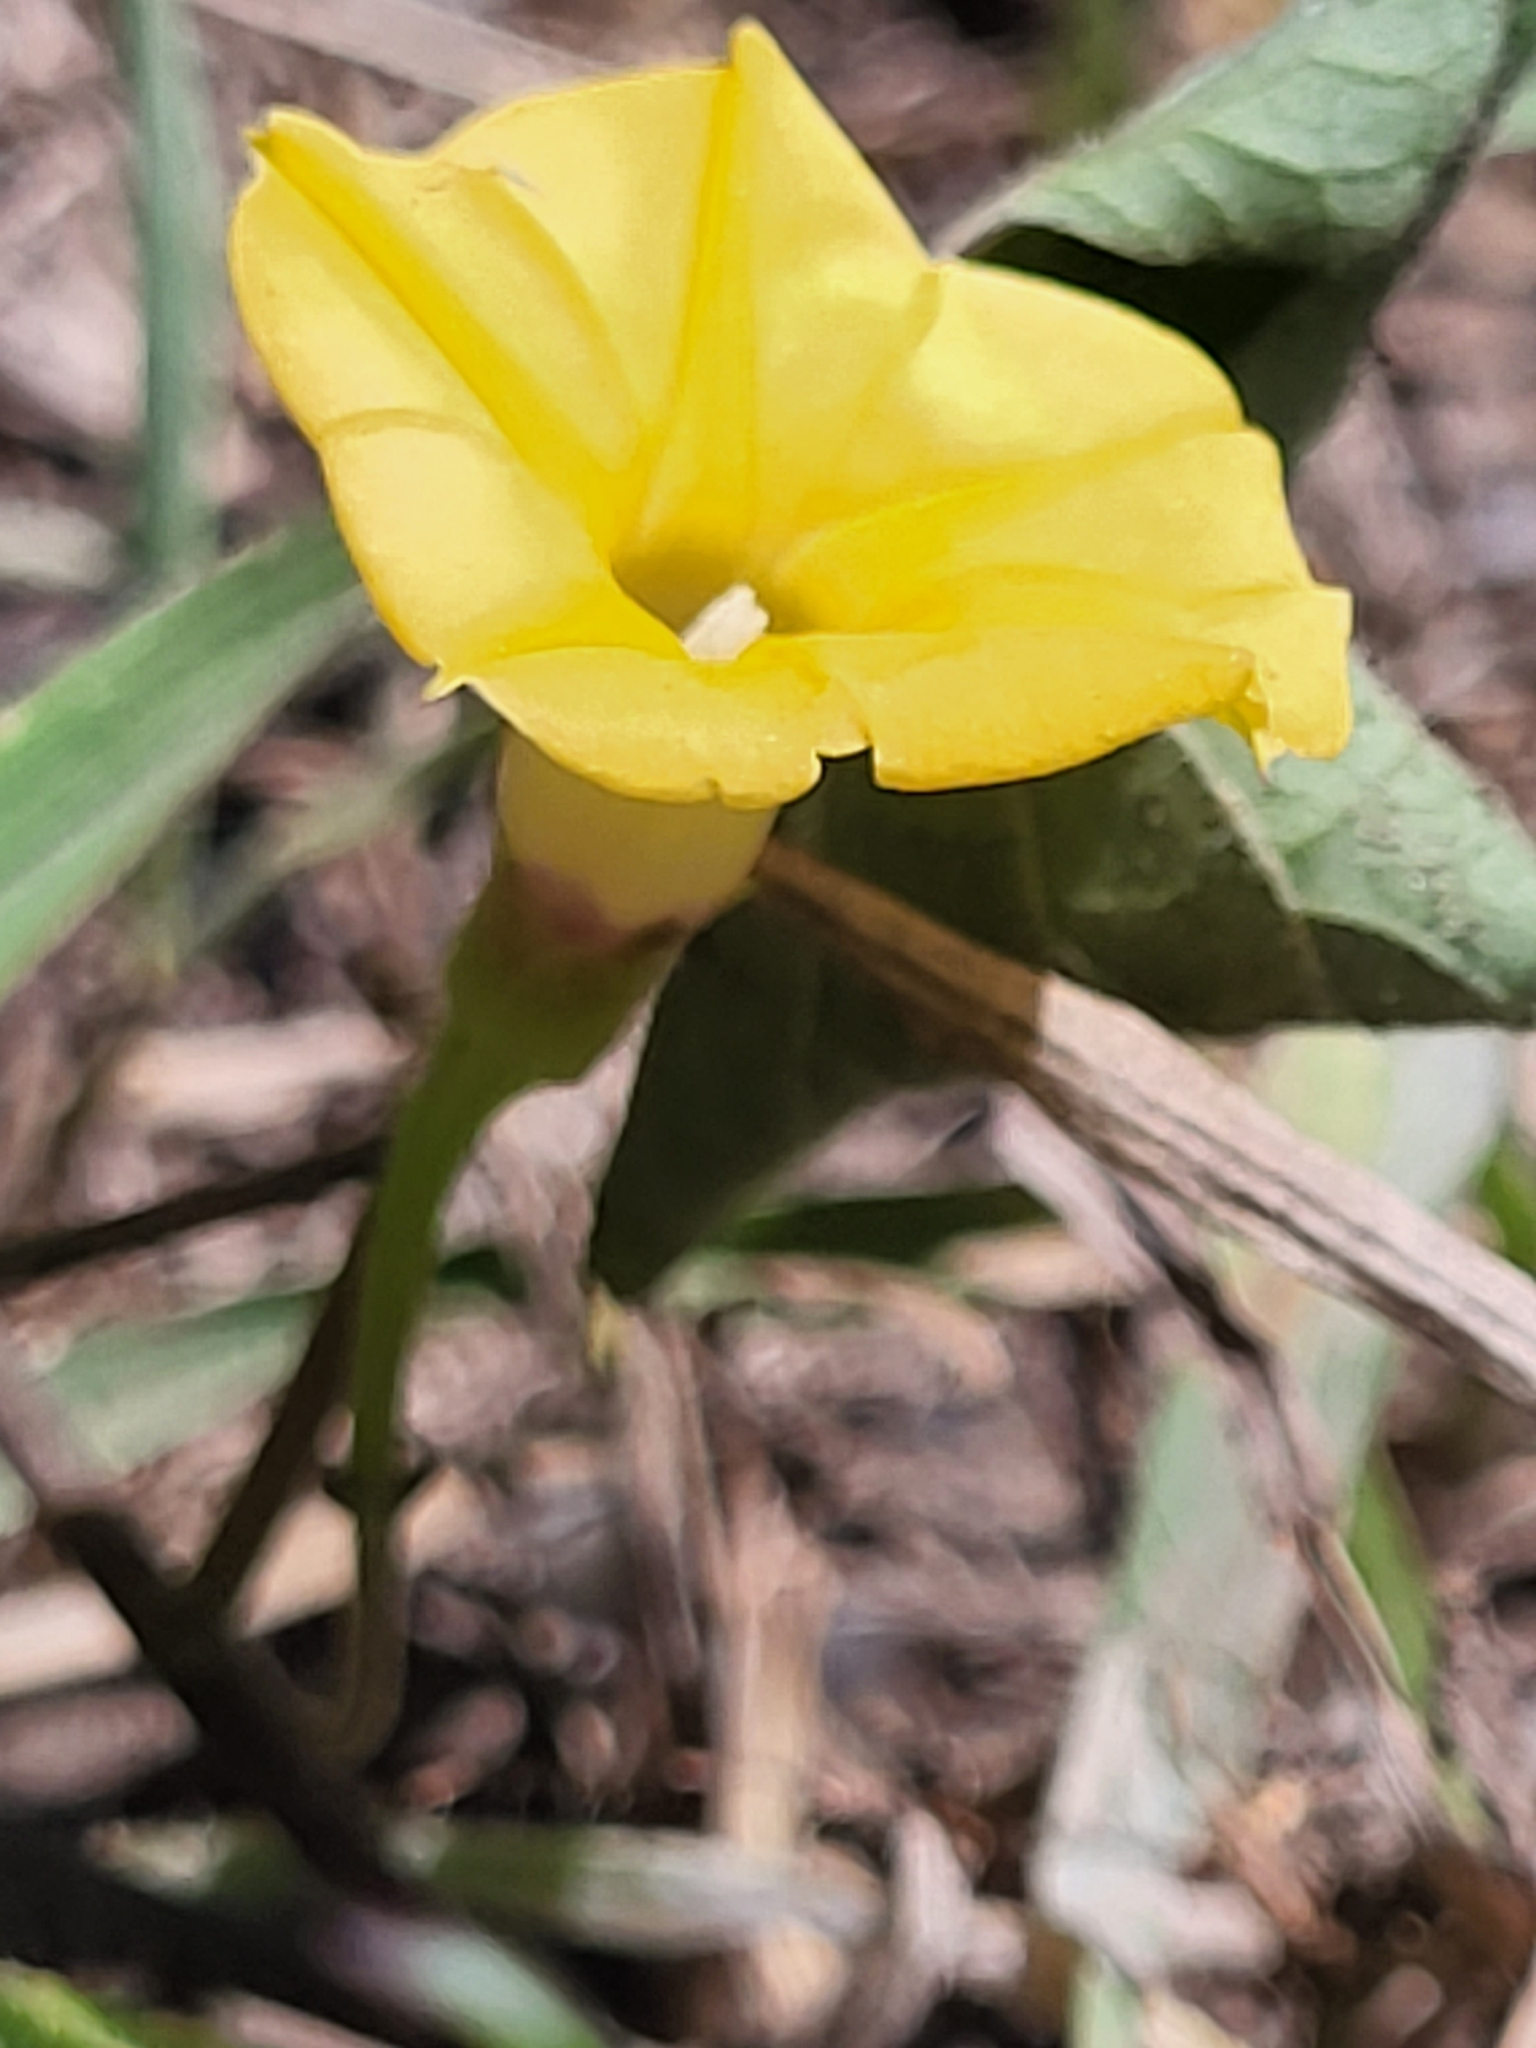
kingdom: Plantae
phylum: Tracheophyta
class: Magnoliopsida
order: Solanales
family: Convolvulaceae
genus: Ipomoea
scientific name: Ipomoea obscura
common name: Obscure morning-glory
